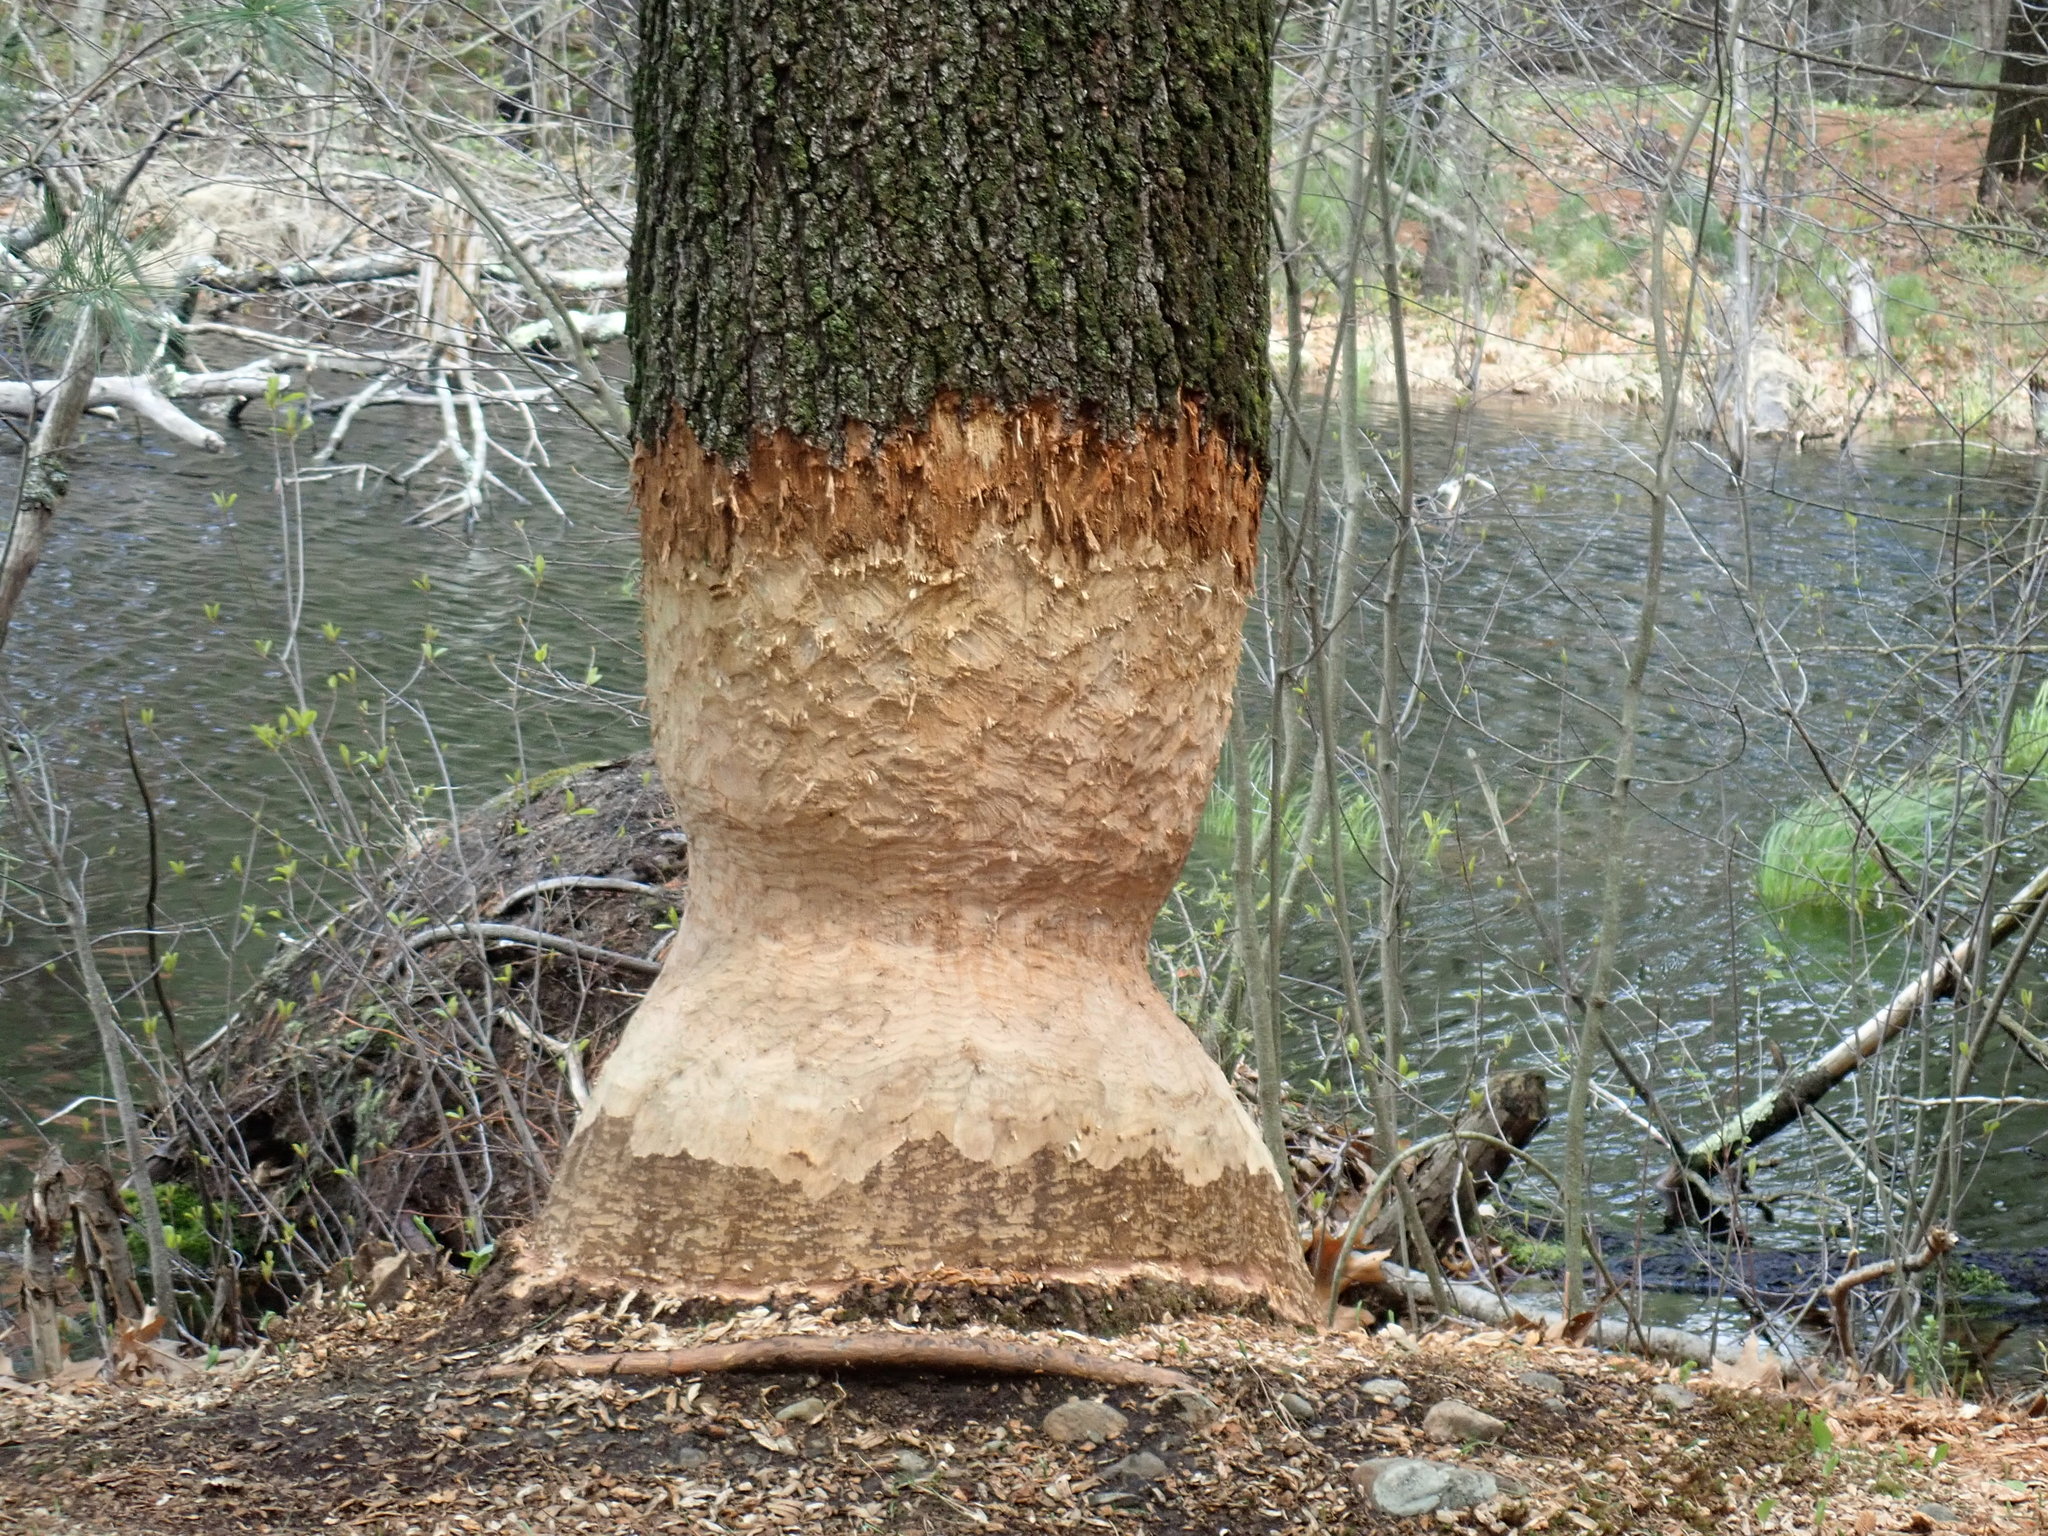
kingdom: Animalia
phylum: Chordata
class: Mammalia
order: Rodentia
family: Castoridae
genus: Castor
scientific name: Castor canadensis
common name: American beaver
